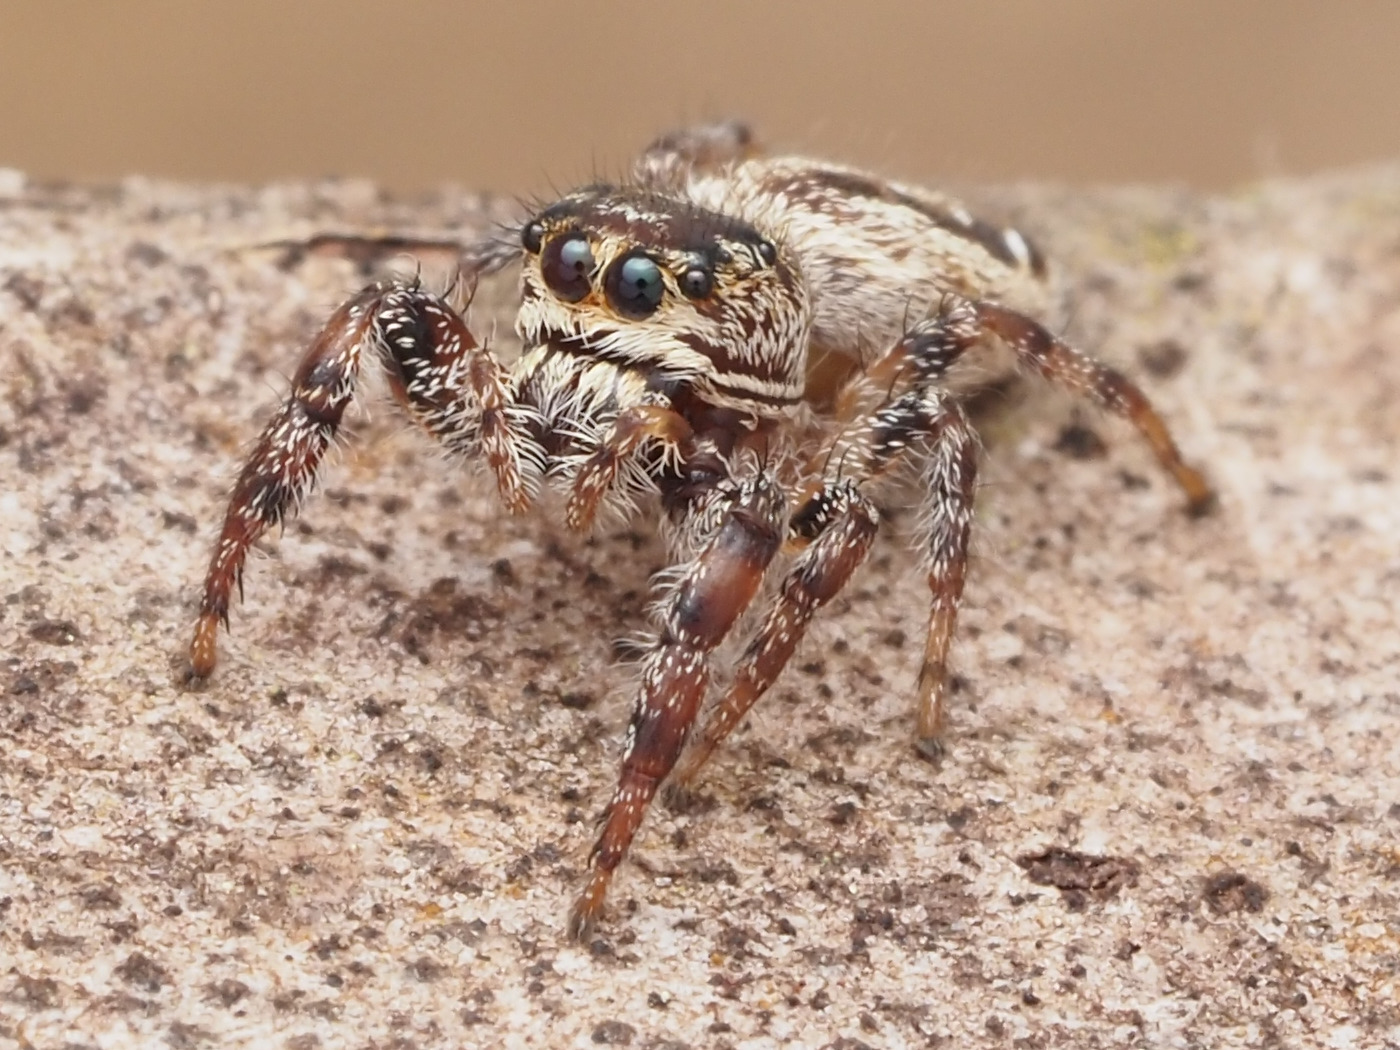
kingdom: Animalia
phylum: Arthropoda
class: Arachnida
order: Araneae
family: Salticidae
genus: Eris
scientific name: Eris flava
